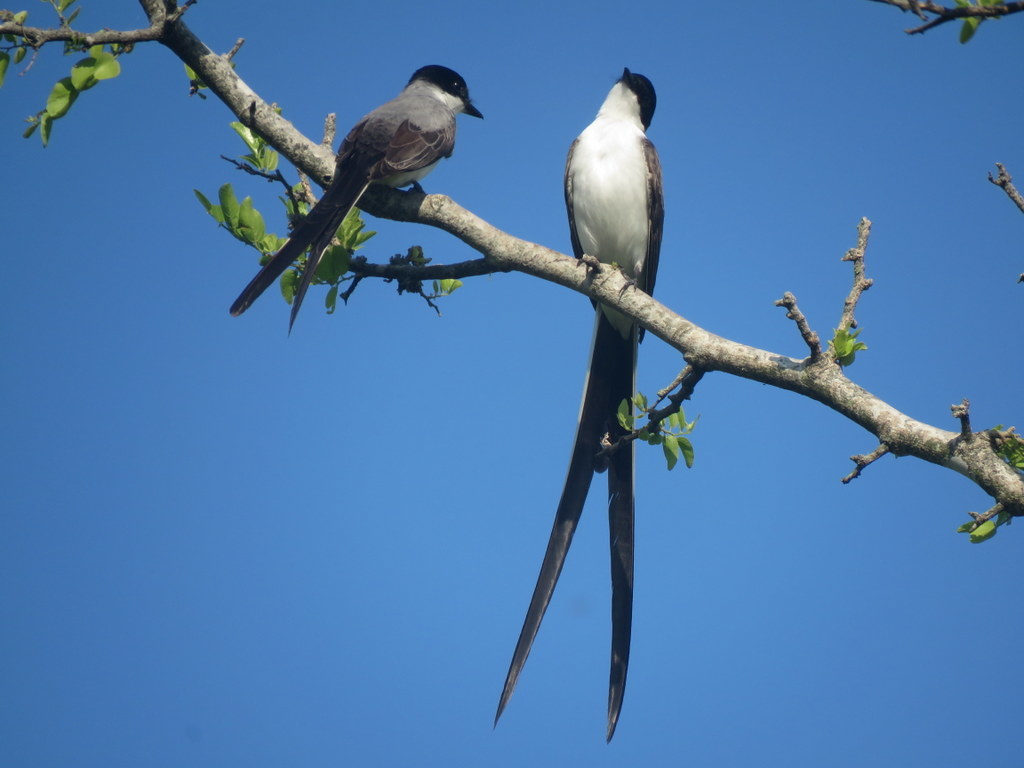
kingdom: Animalia
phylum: Chordata
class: Aves
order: Passeriformes
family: Tyrannidae
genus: Tyrannus
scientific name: Tyrannus savana
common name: Fork-tailed flycatcher
